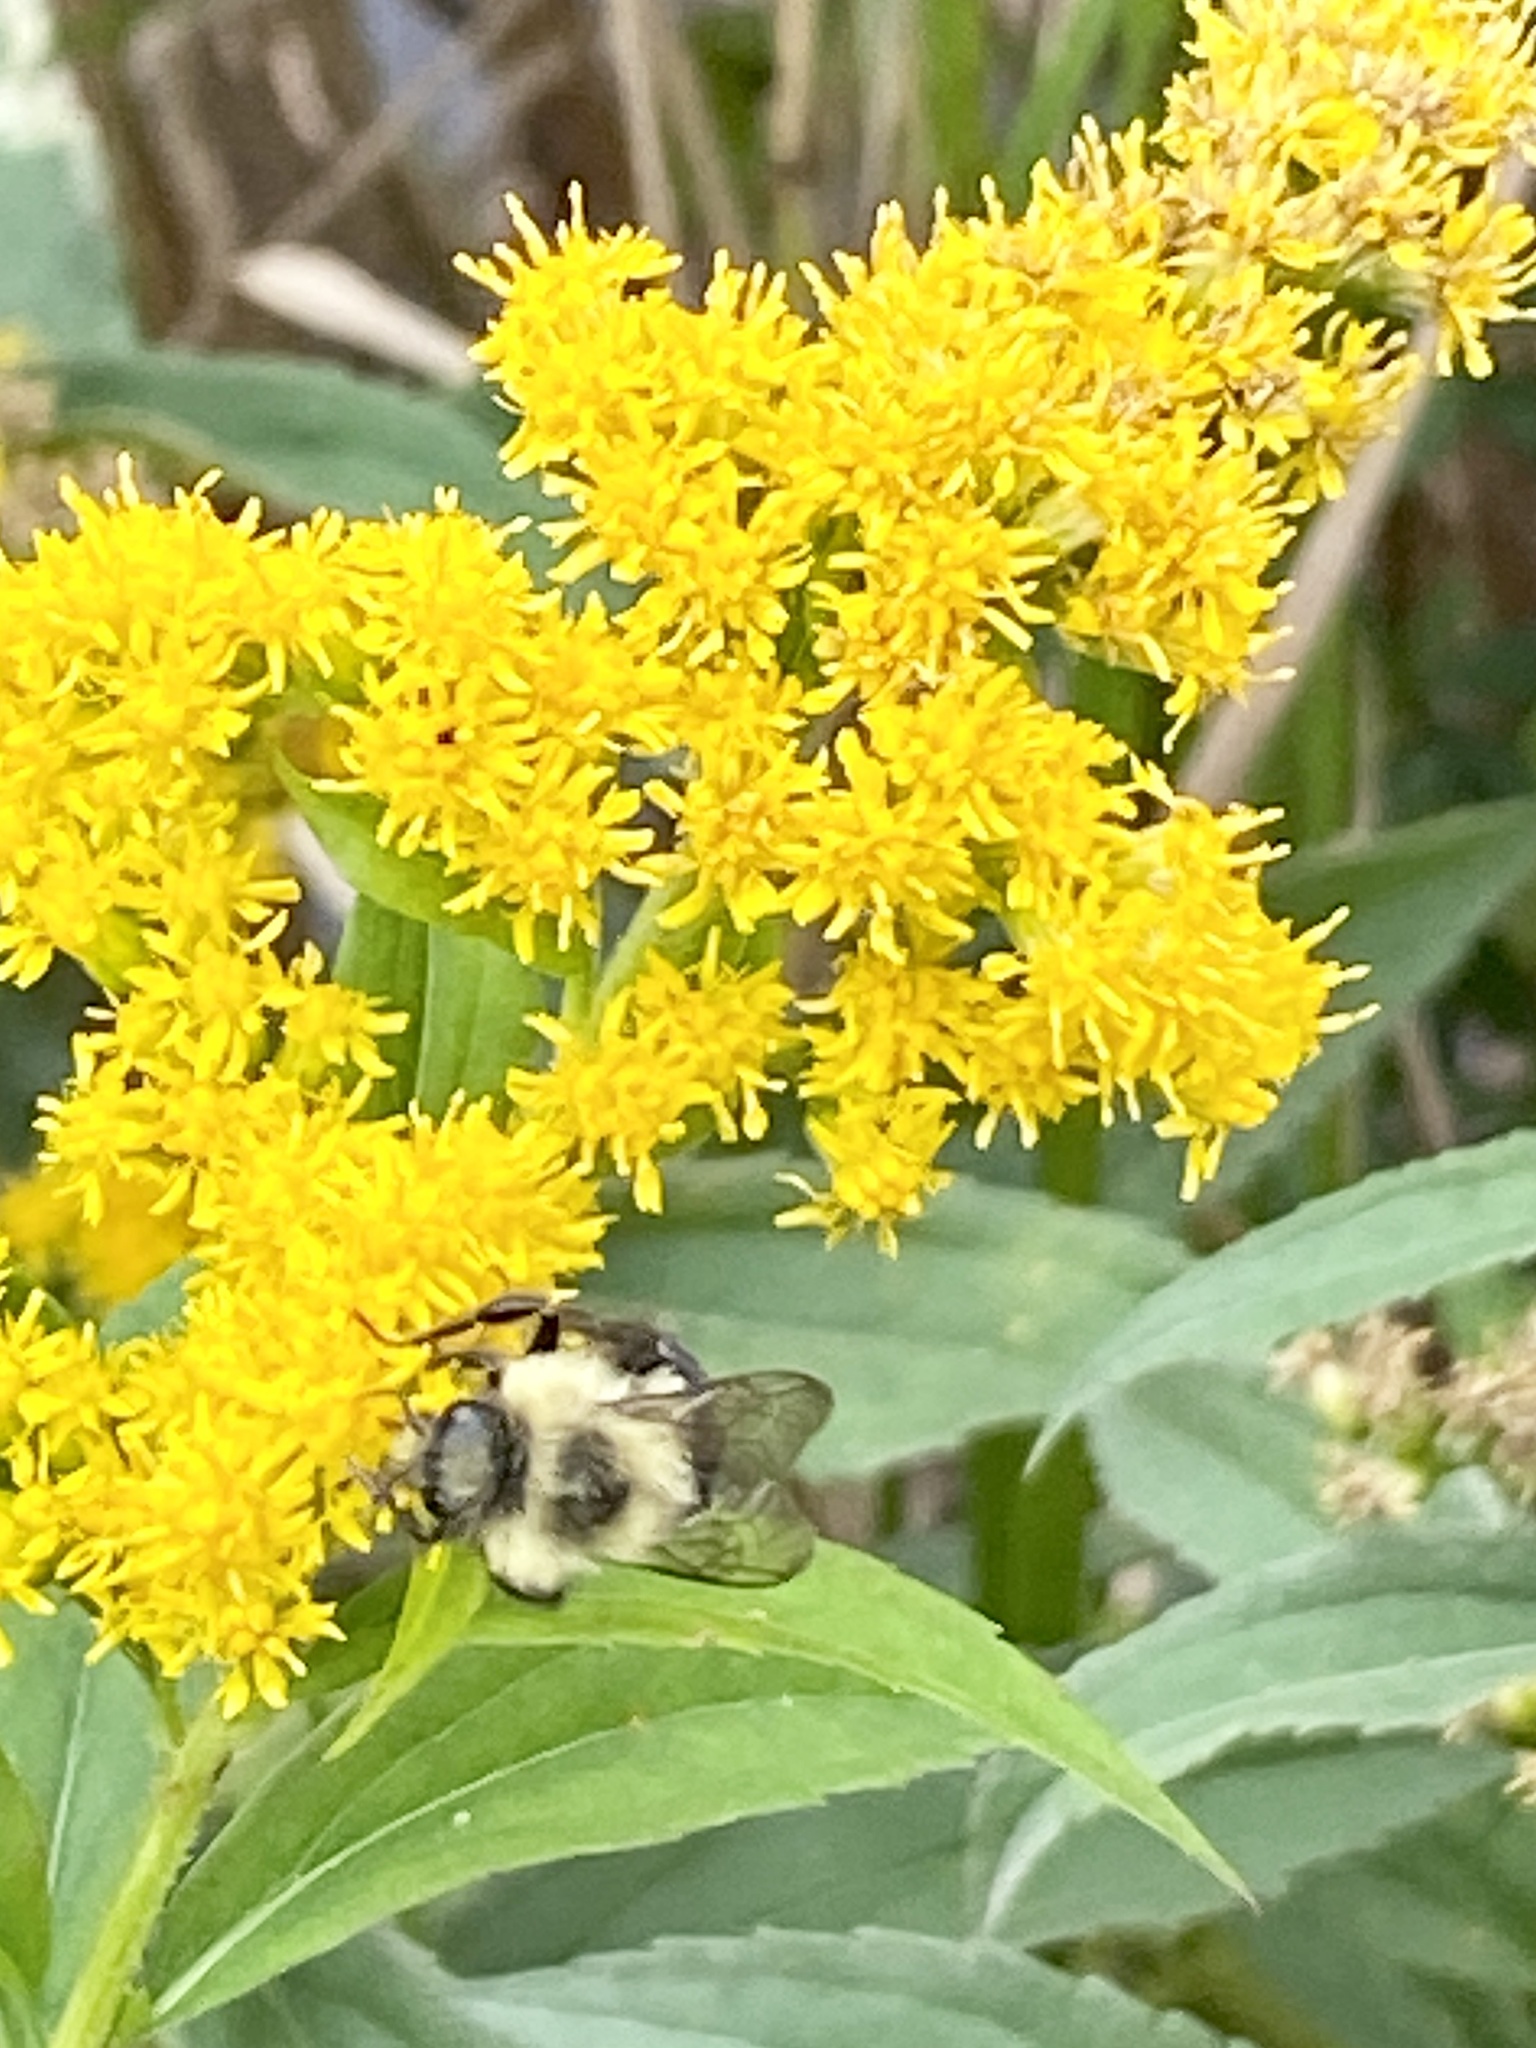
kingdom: Animalia
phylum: Arthropoda
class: Insecta
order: Hymenoptera
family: Apidae
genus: Bombus
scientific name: Bombus impatiens
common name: Common eastern bumble bee
